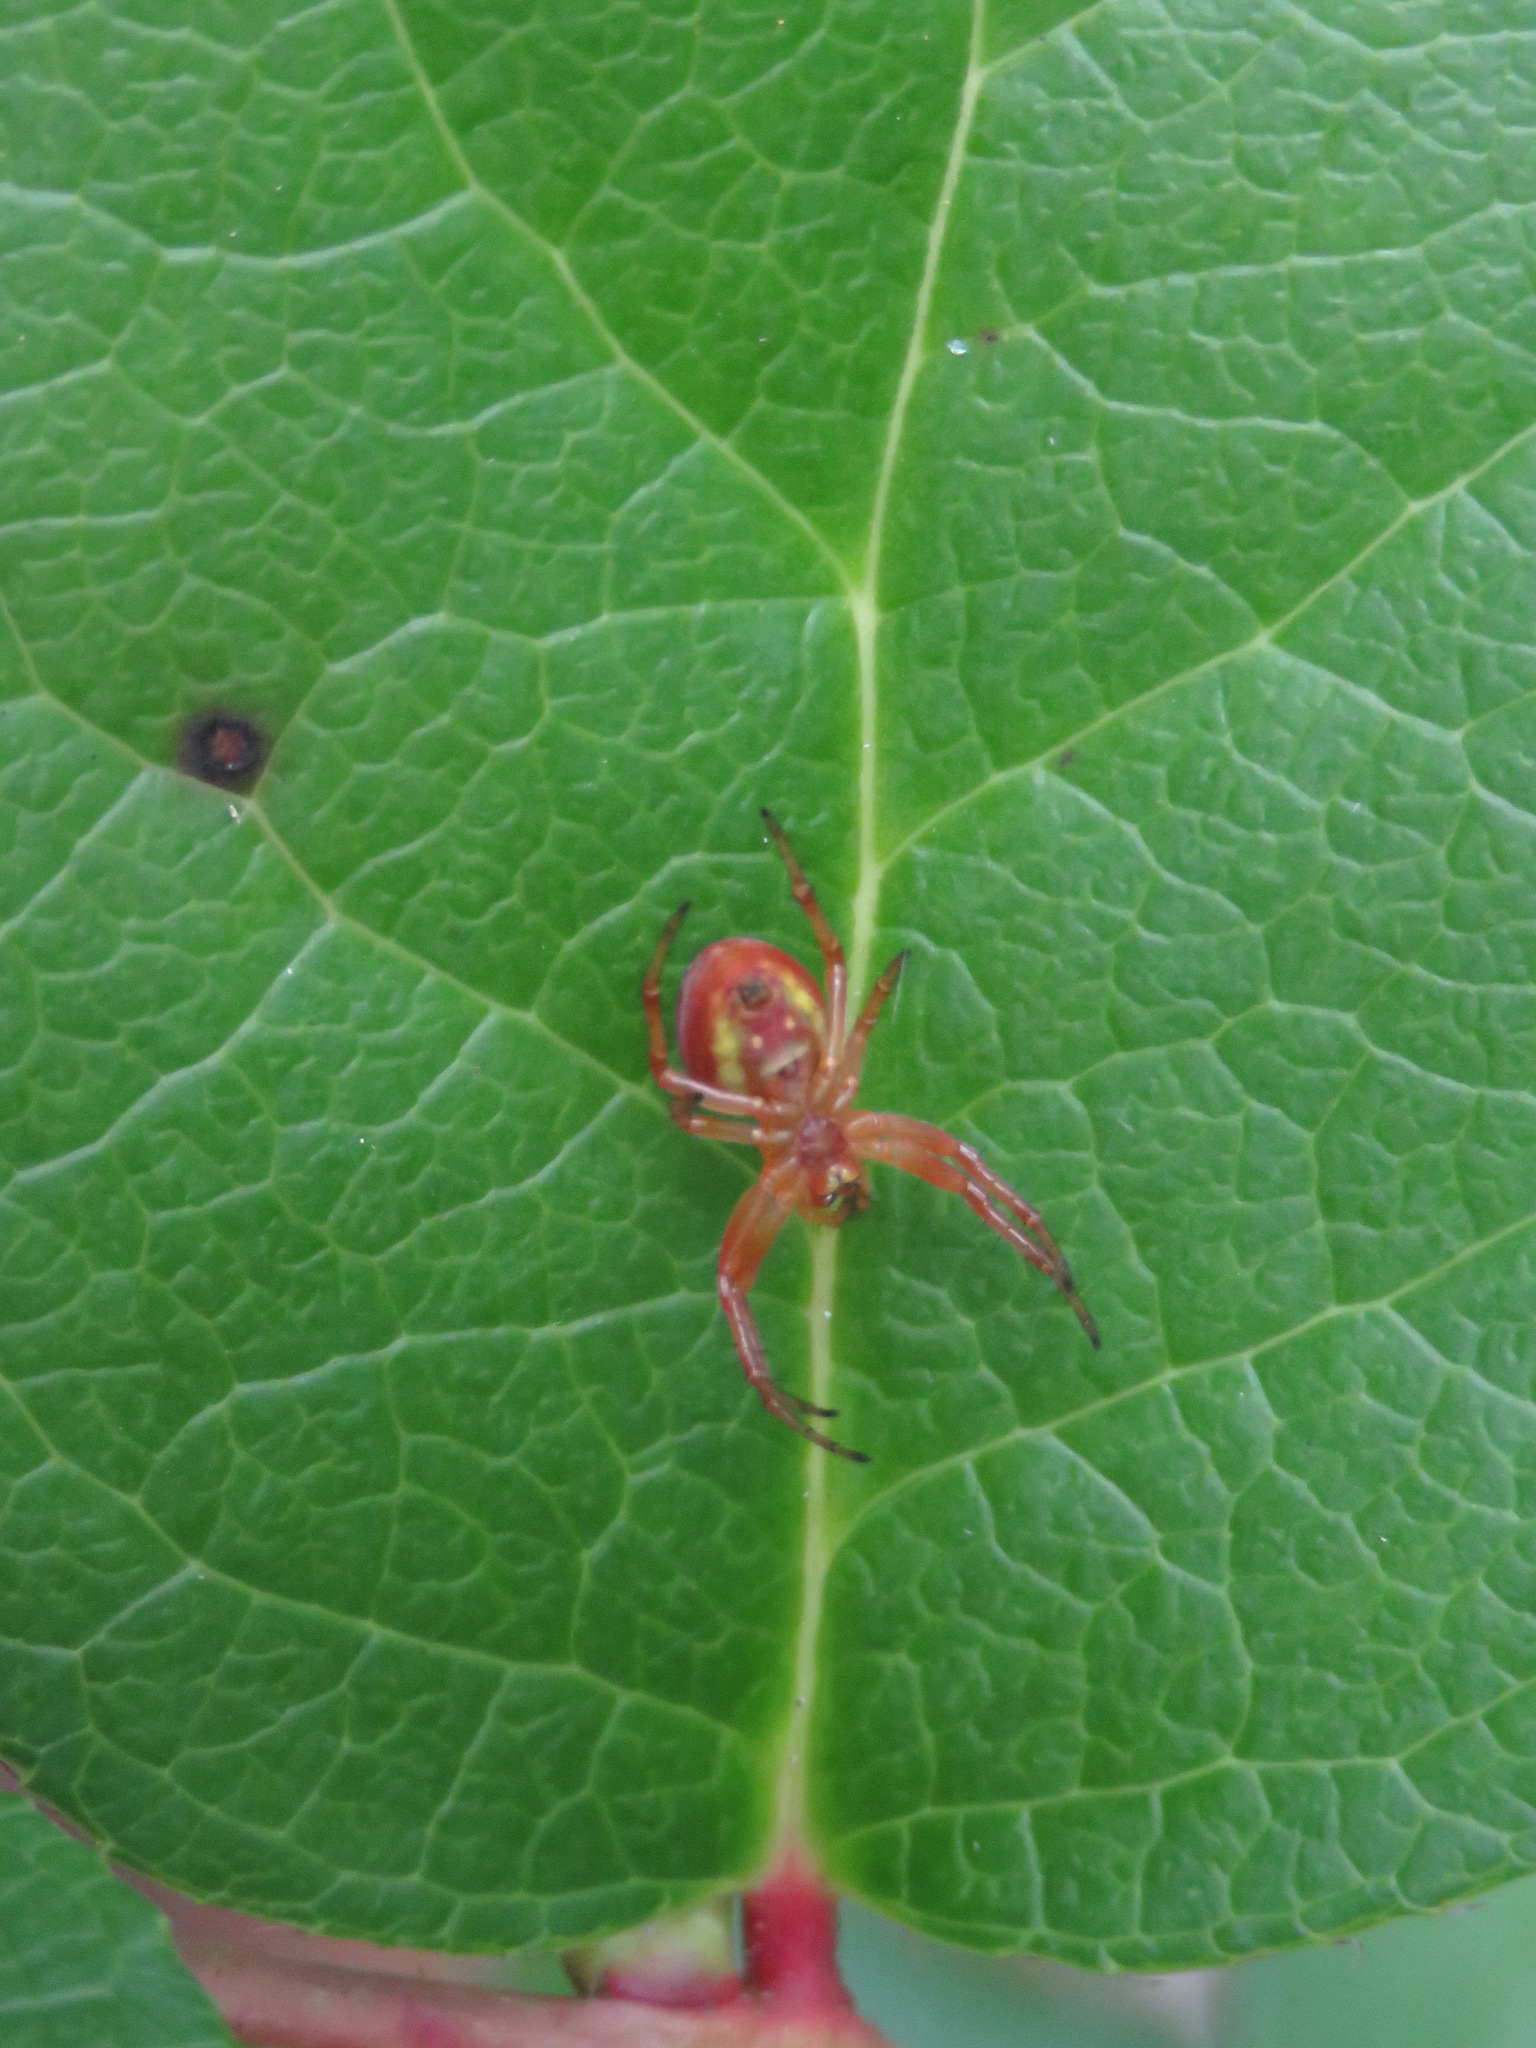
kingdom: Animalia
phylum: Arthropoda
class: Arachnida
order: Araneae
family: Araneidae
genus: Araniella
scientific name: Araniella displicata
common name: Sixspotted orb weaver
